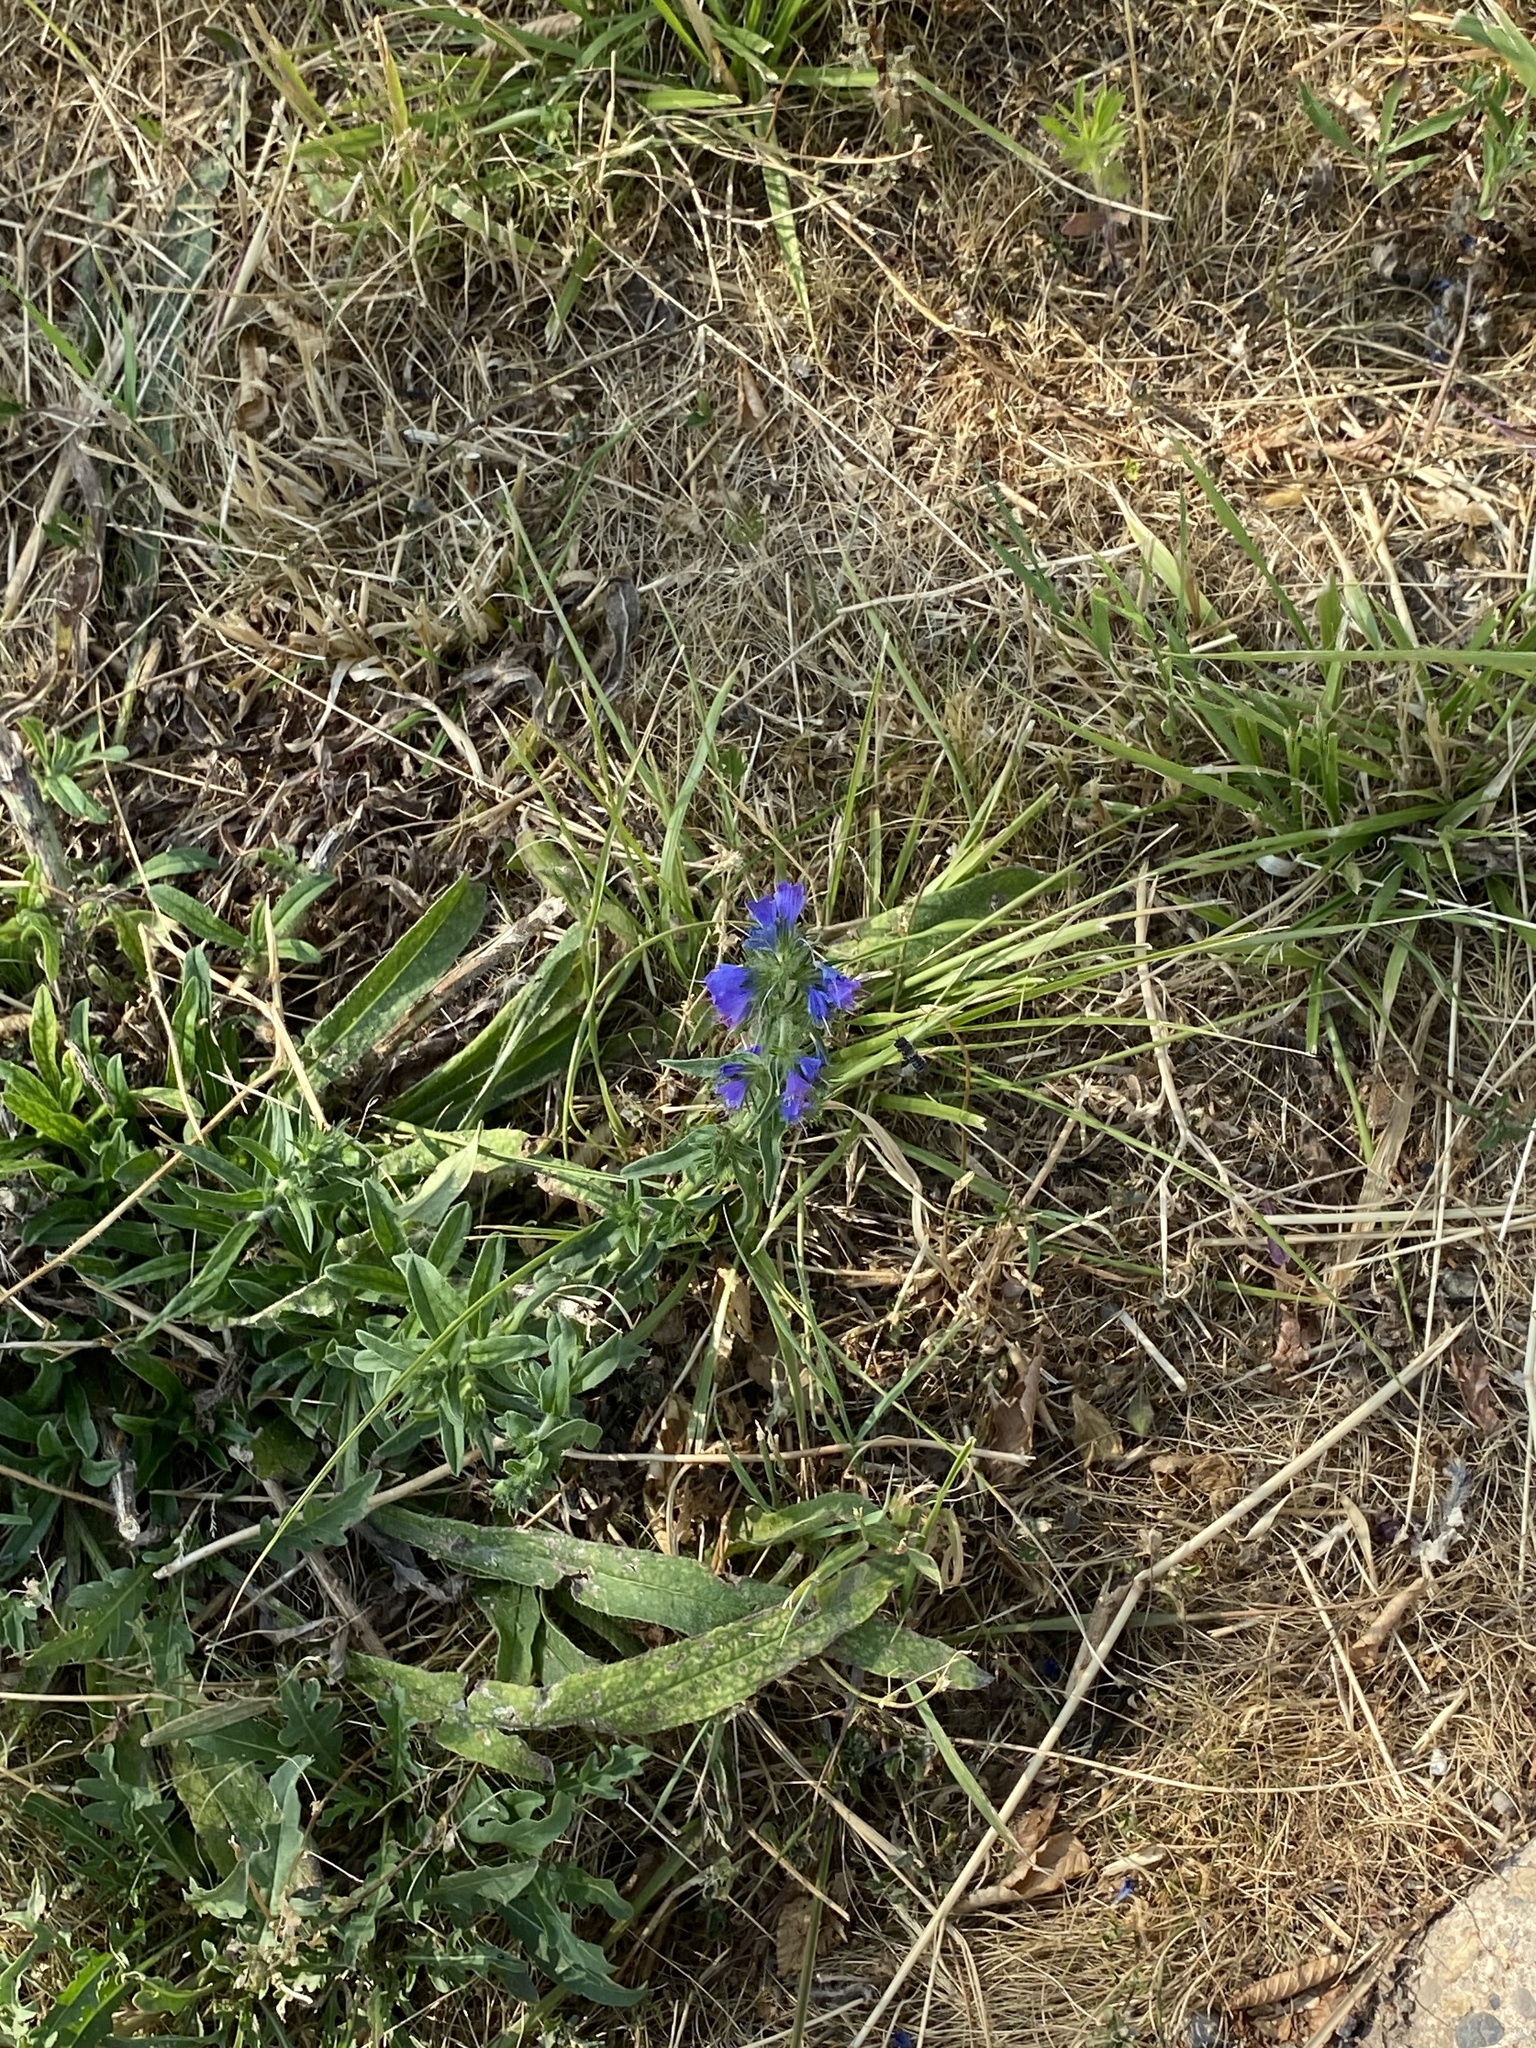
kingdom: Plantae
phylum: Tracheophyta
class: Magnoliopsida
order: Boraginales
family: Boraginaceae
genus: Echium
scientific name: Echium vulgare
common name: Common viper's bugloss
